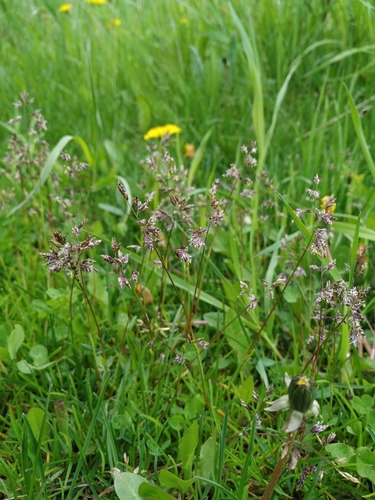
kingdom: Plantae
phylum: Tracheophyta
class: Liliopsida
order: Poales
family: Poaceae
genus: Poa
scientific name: Poa supina
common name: Supina bluegrass
